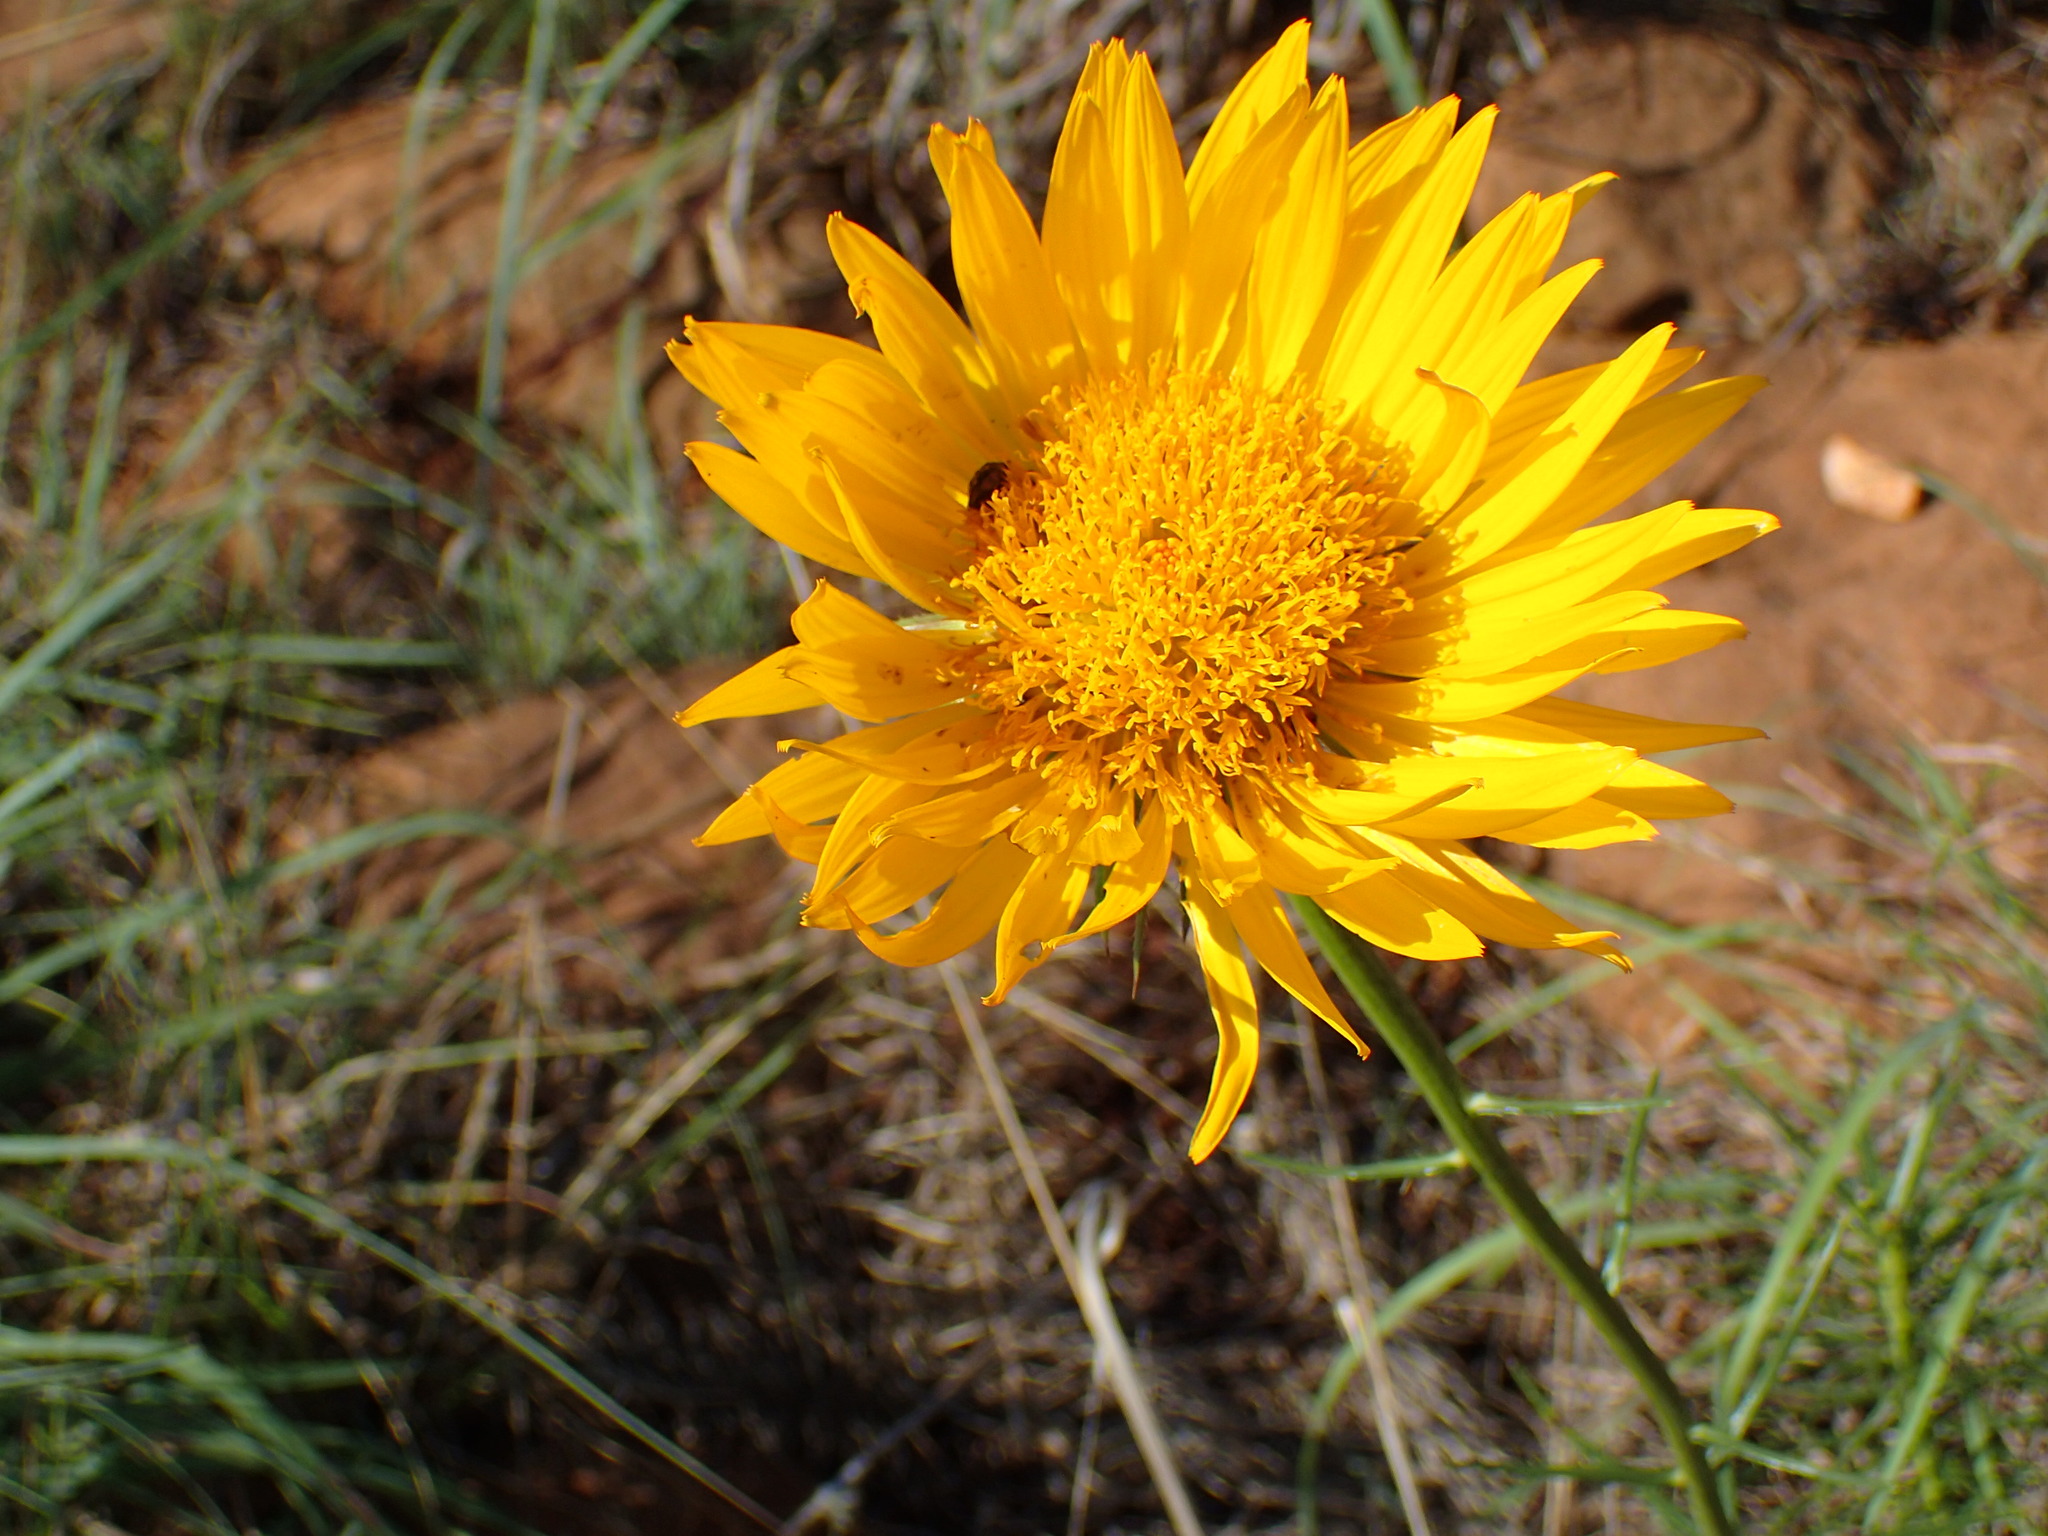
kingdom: Plantae
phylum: Tracheophyta
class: Magnoliopsida
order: Asterales
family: Asteraceae
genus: Berkheya
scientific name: Berkheya subulata
